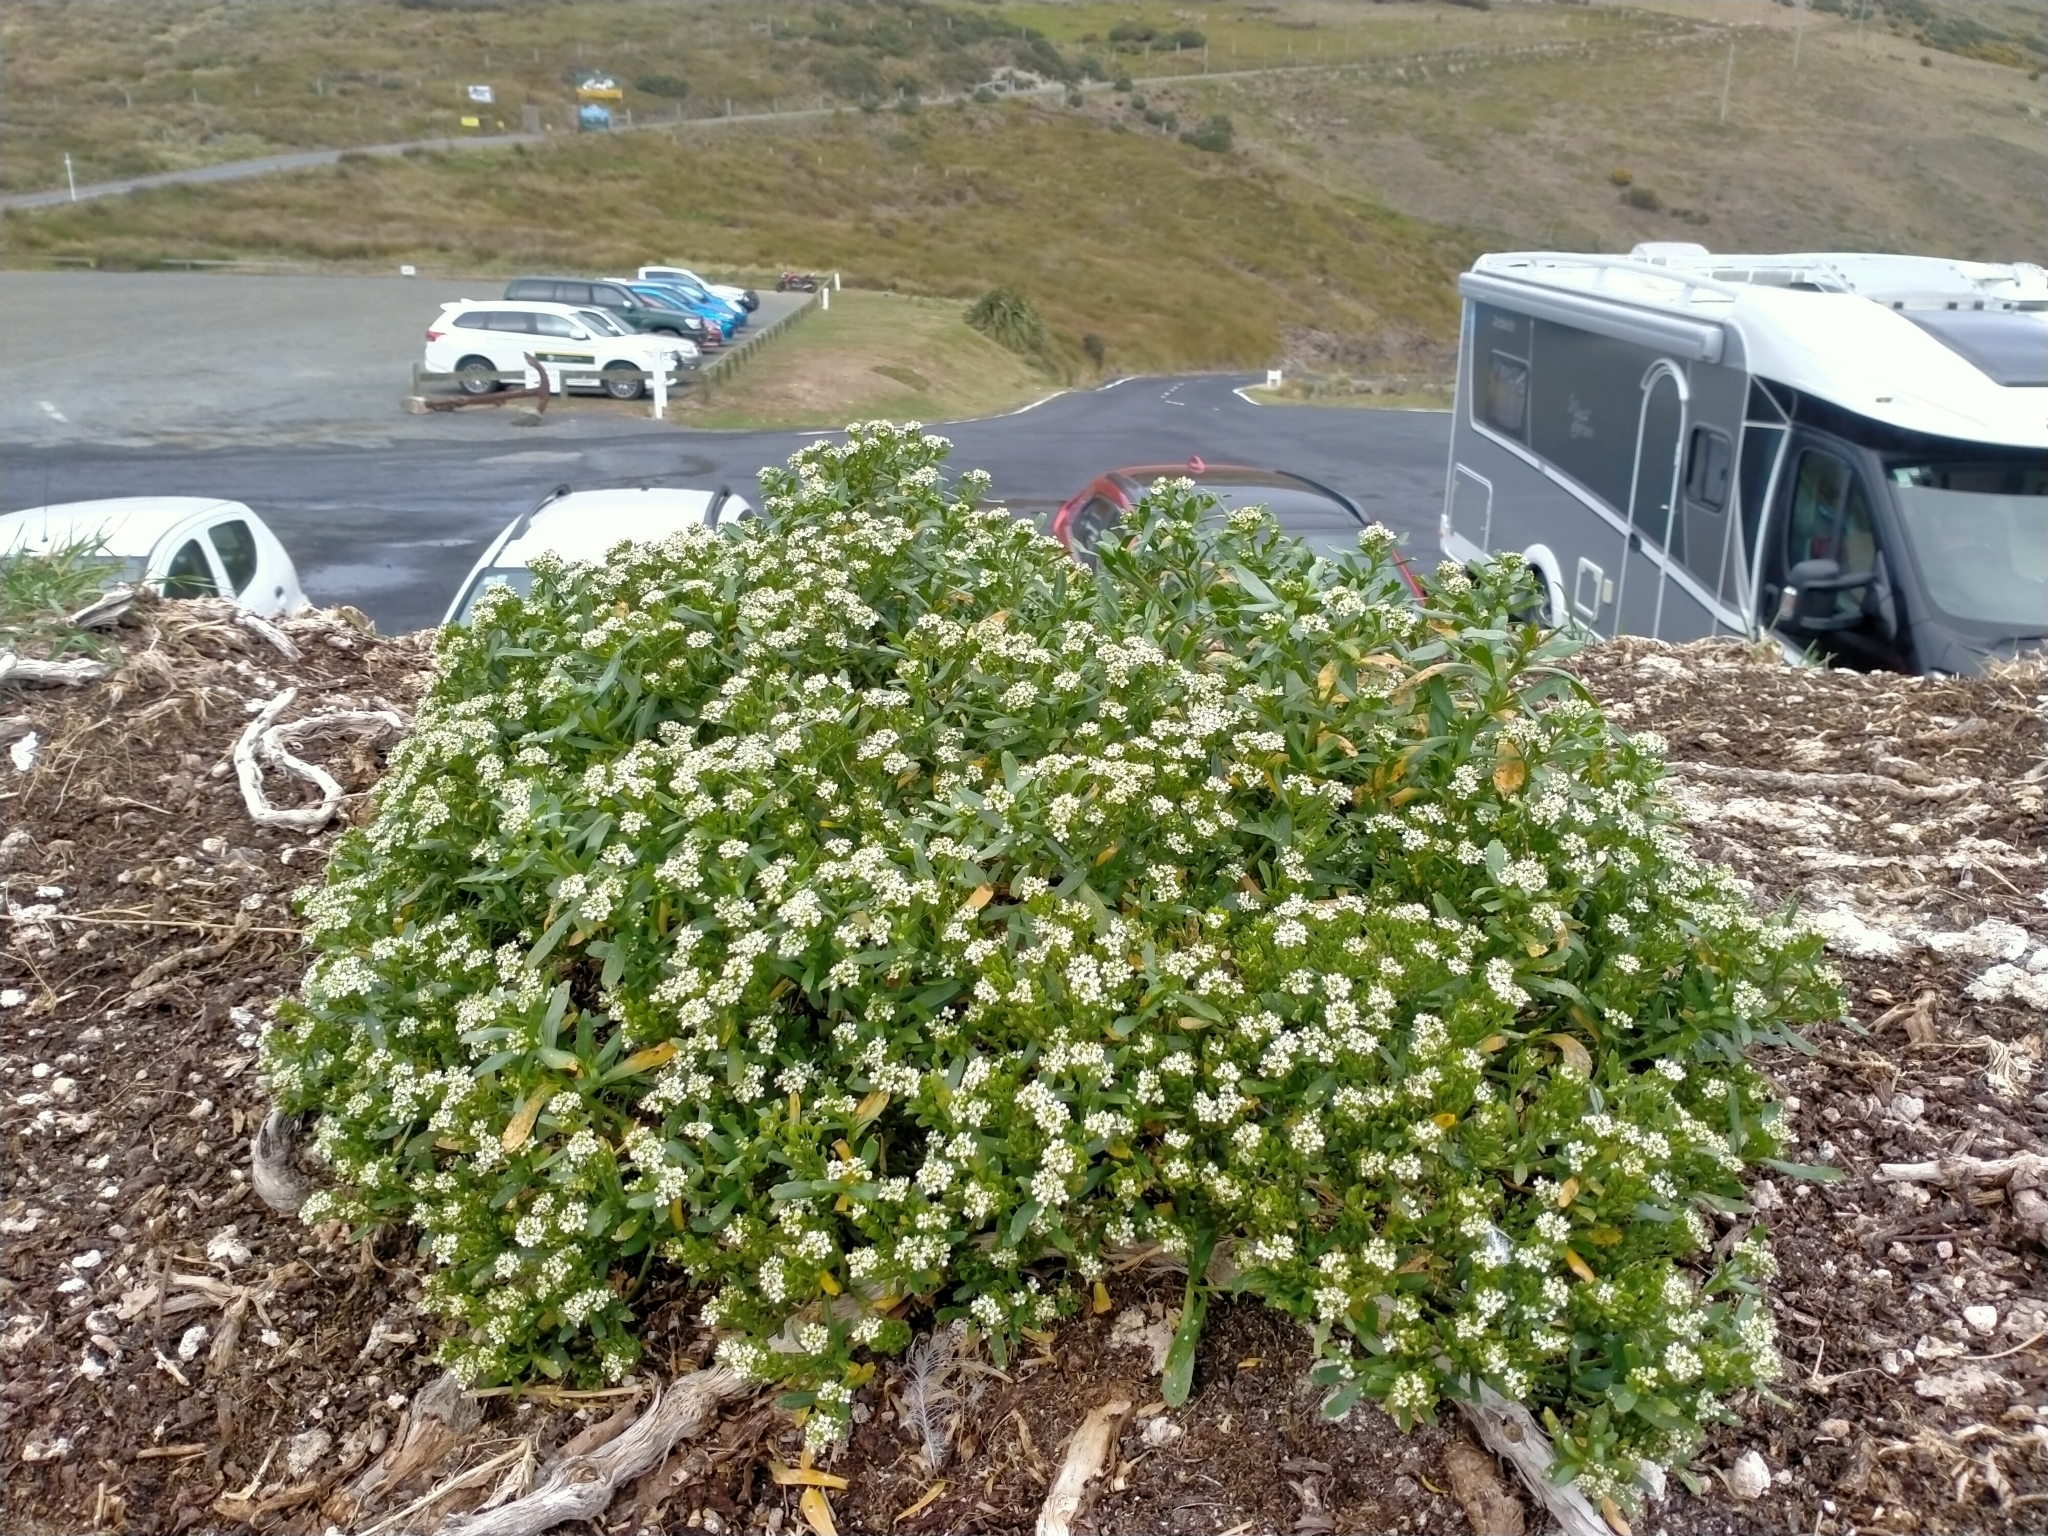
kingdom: Plantae
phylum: Tracheophyta
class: Magnoliopsida
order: Brassicales
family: Brassicaceae
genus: Lepidium
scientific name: Lepidium crassum
